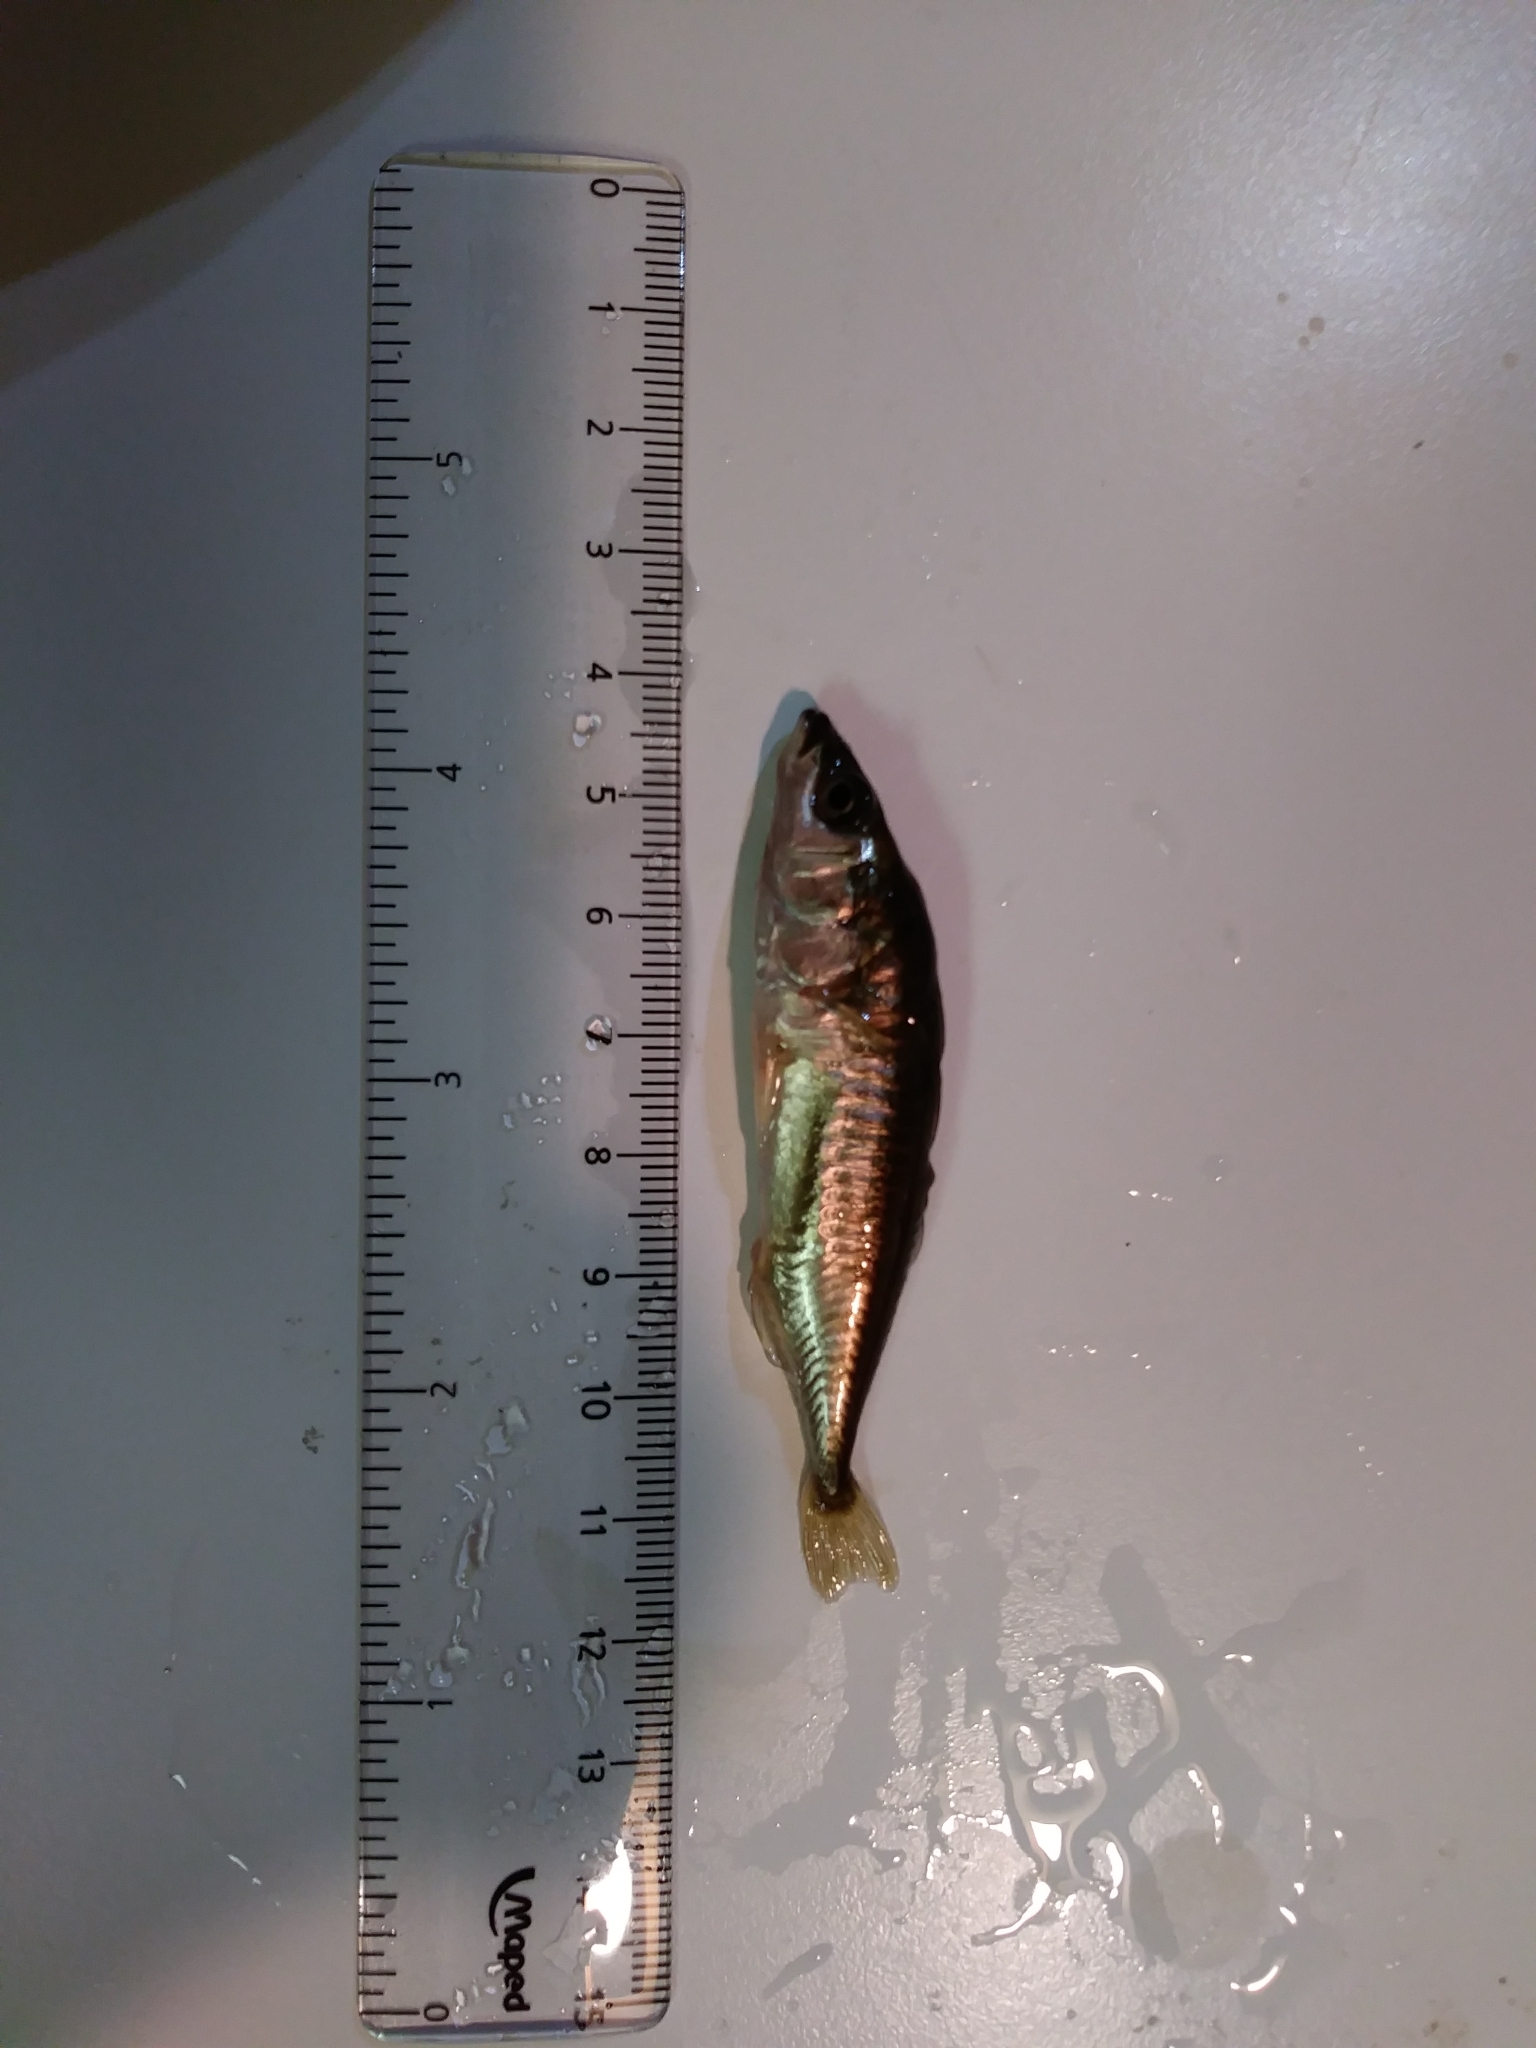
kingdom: Animalia
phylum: Chordata
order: Gasterosteiformes
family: Gasterosteidae
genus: Gasterosteus
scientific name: Gasterosteus aculeatus
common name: Three-spined stickleback
